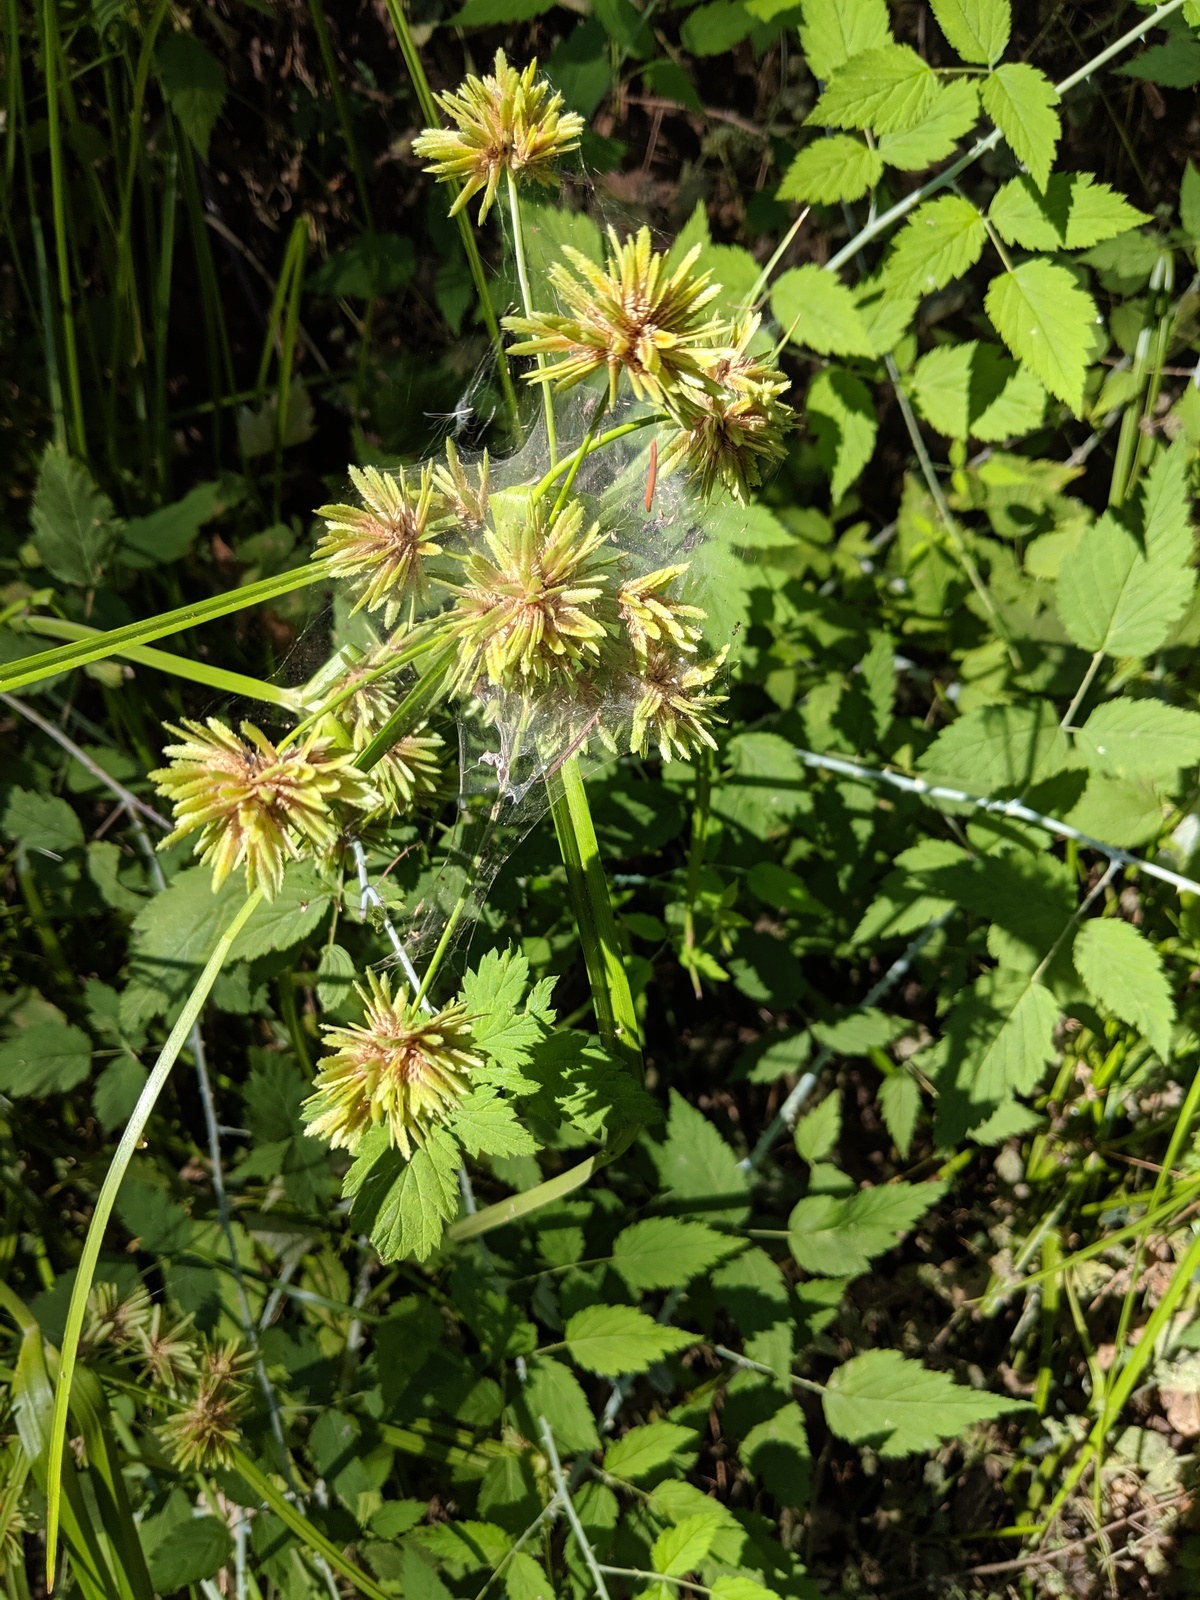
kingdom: Plantae
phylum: Tracheophyta
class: Liliopsida
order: Poales
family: Cyperaceae
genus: Cyperus
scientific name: Cyperus eragrostis
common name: Tall flatsedge
